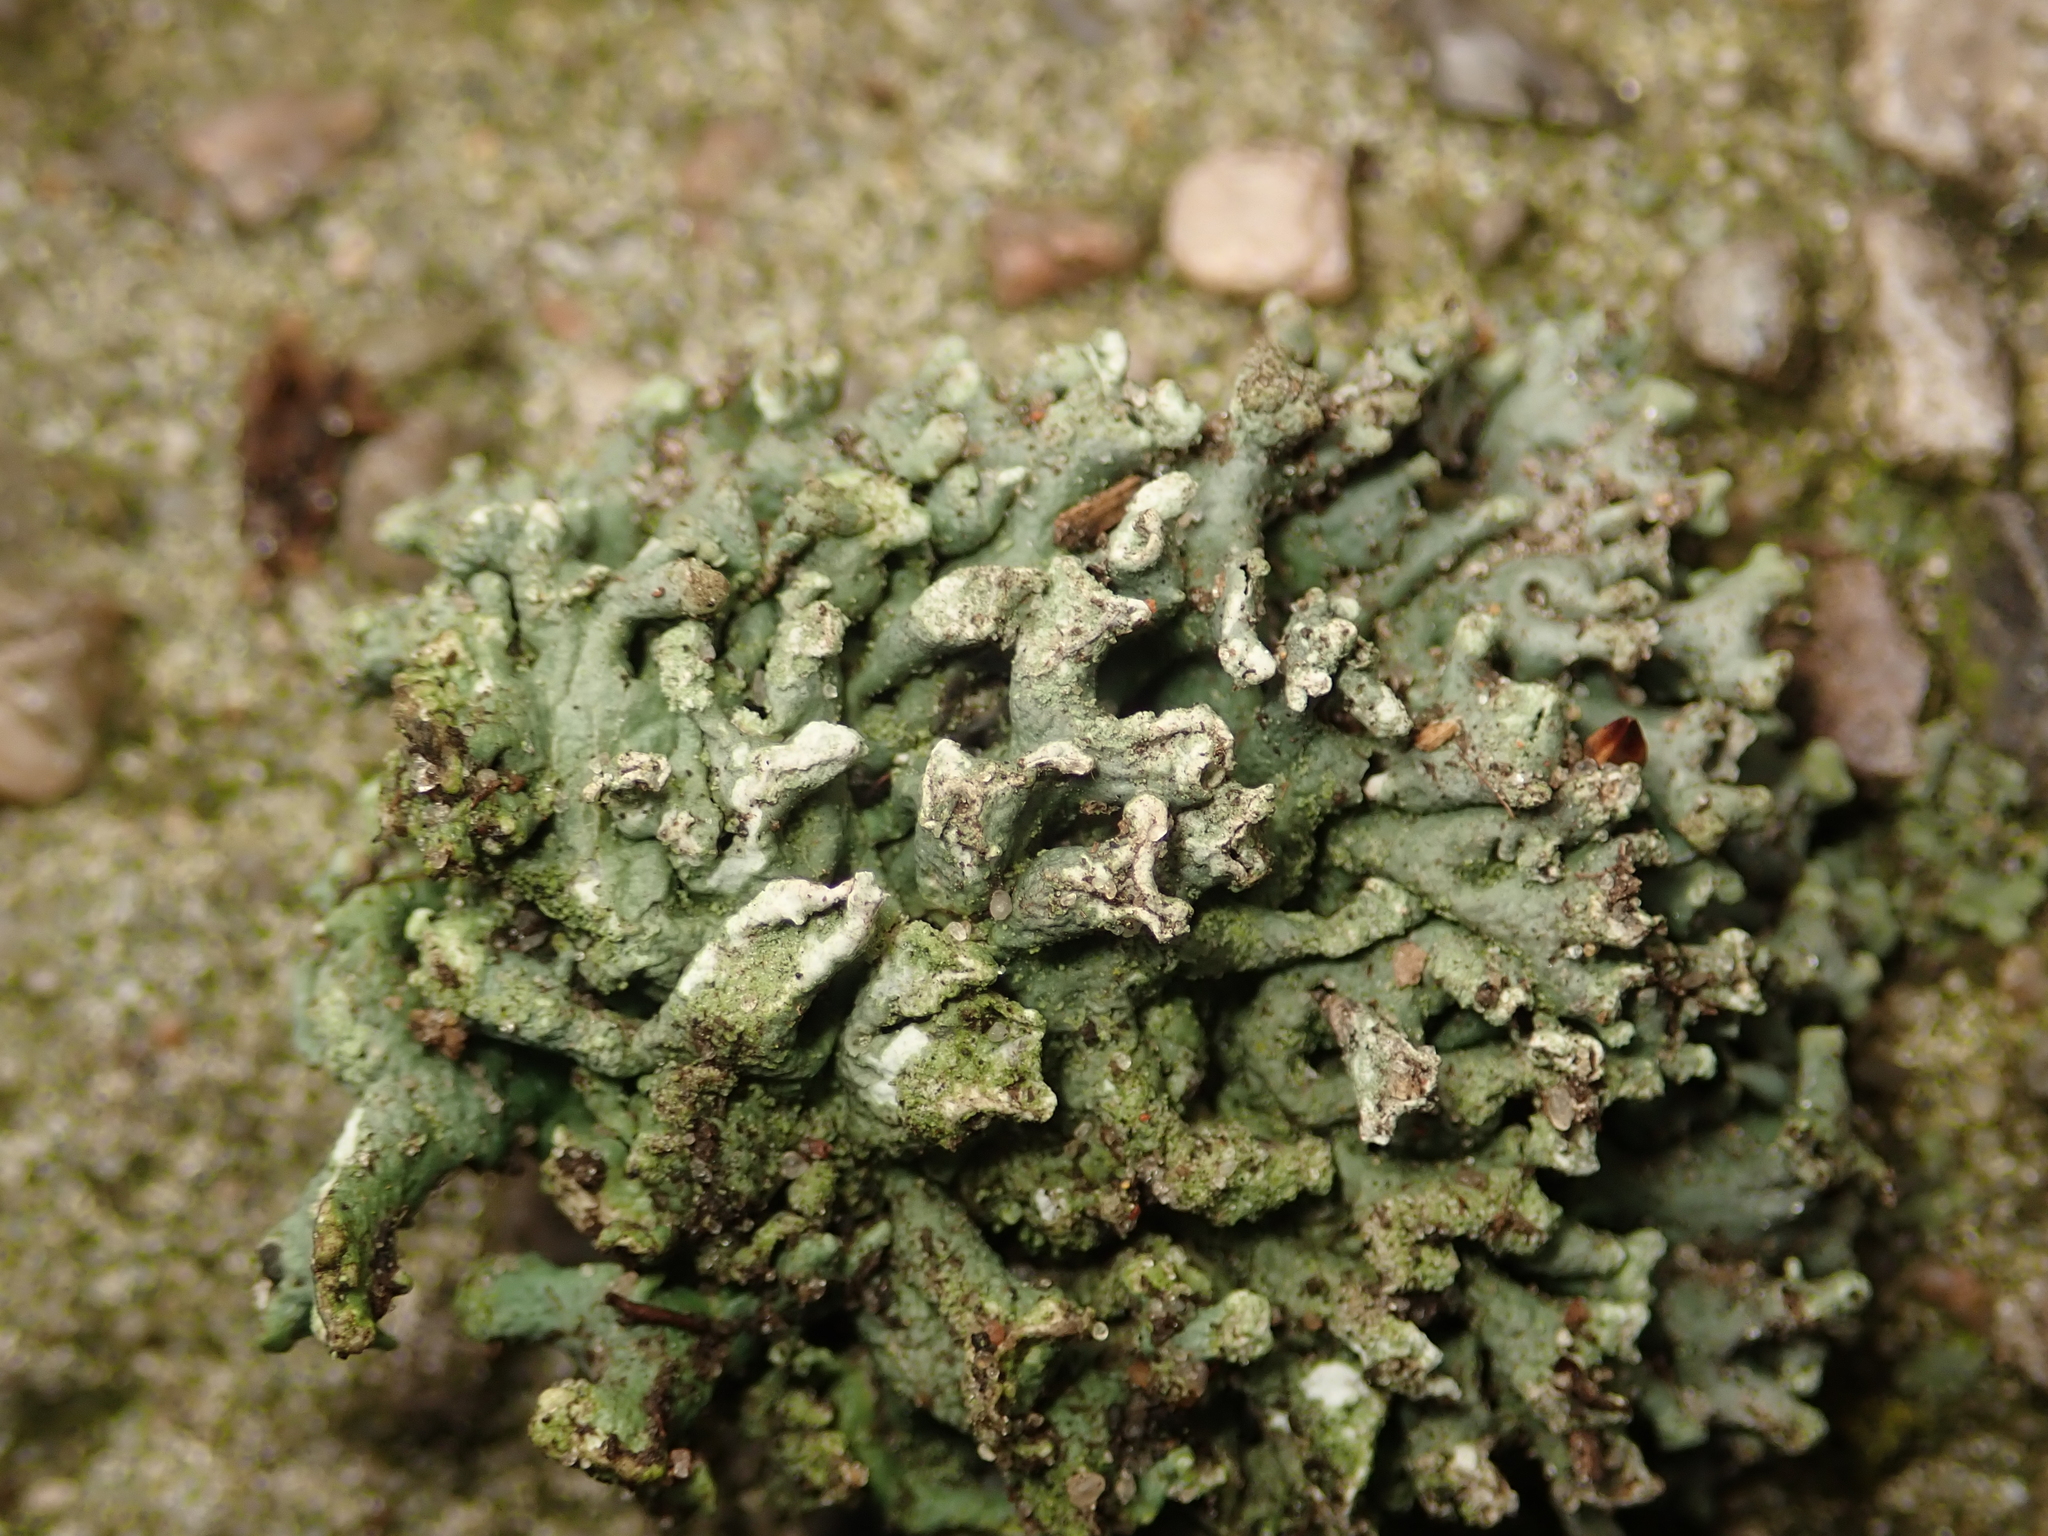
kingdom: Fungi
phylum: Ascomycota
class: Lecanoromycetes
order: Lecanorales
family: Parmeliaceae
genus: Hypogymnia
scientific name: Hypogymnia tubulosa
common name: Powder-headed tube lichen
